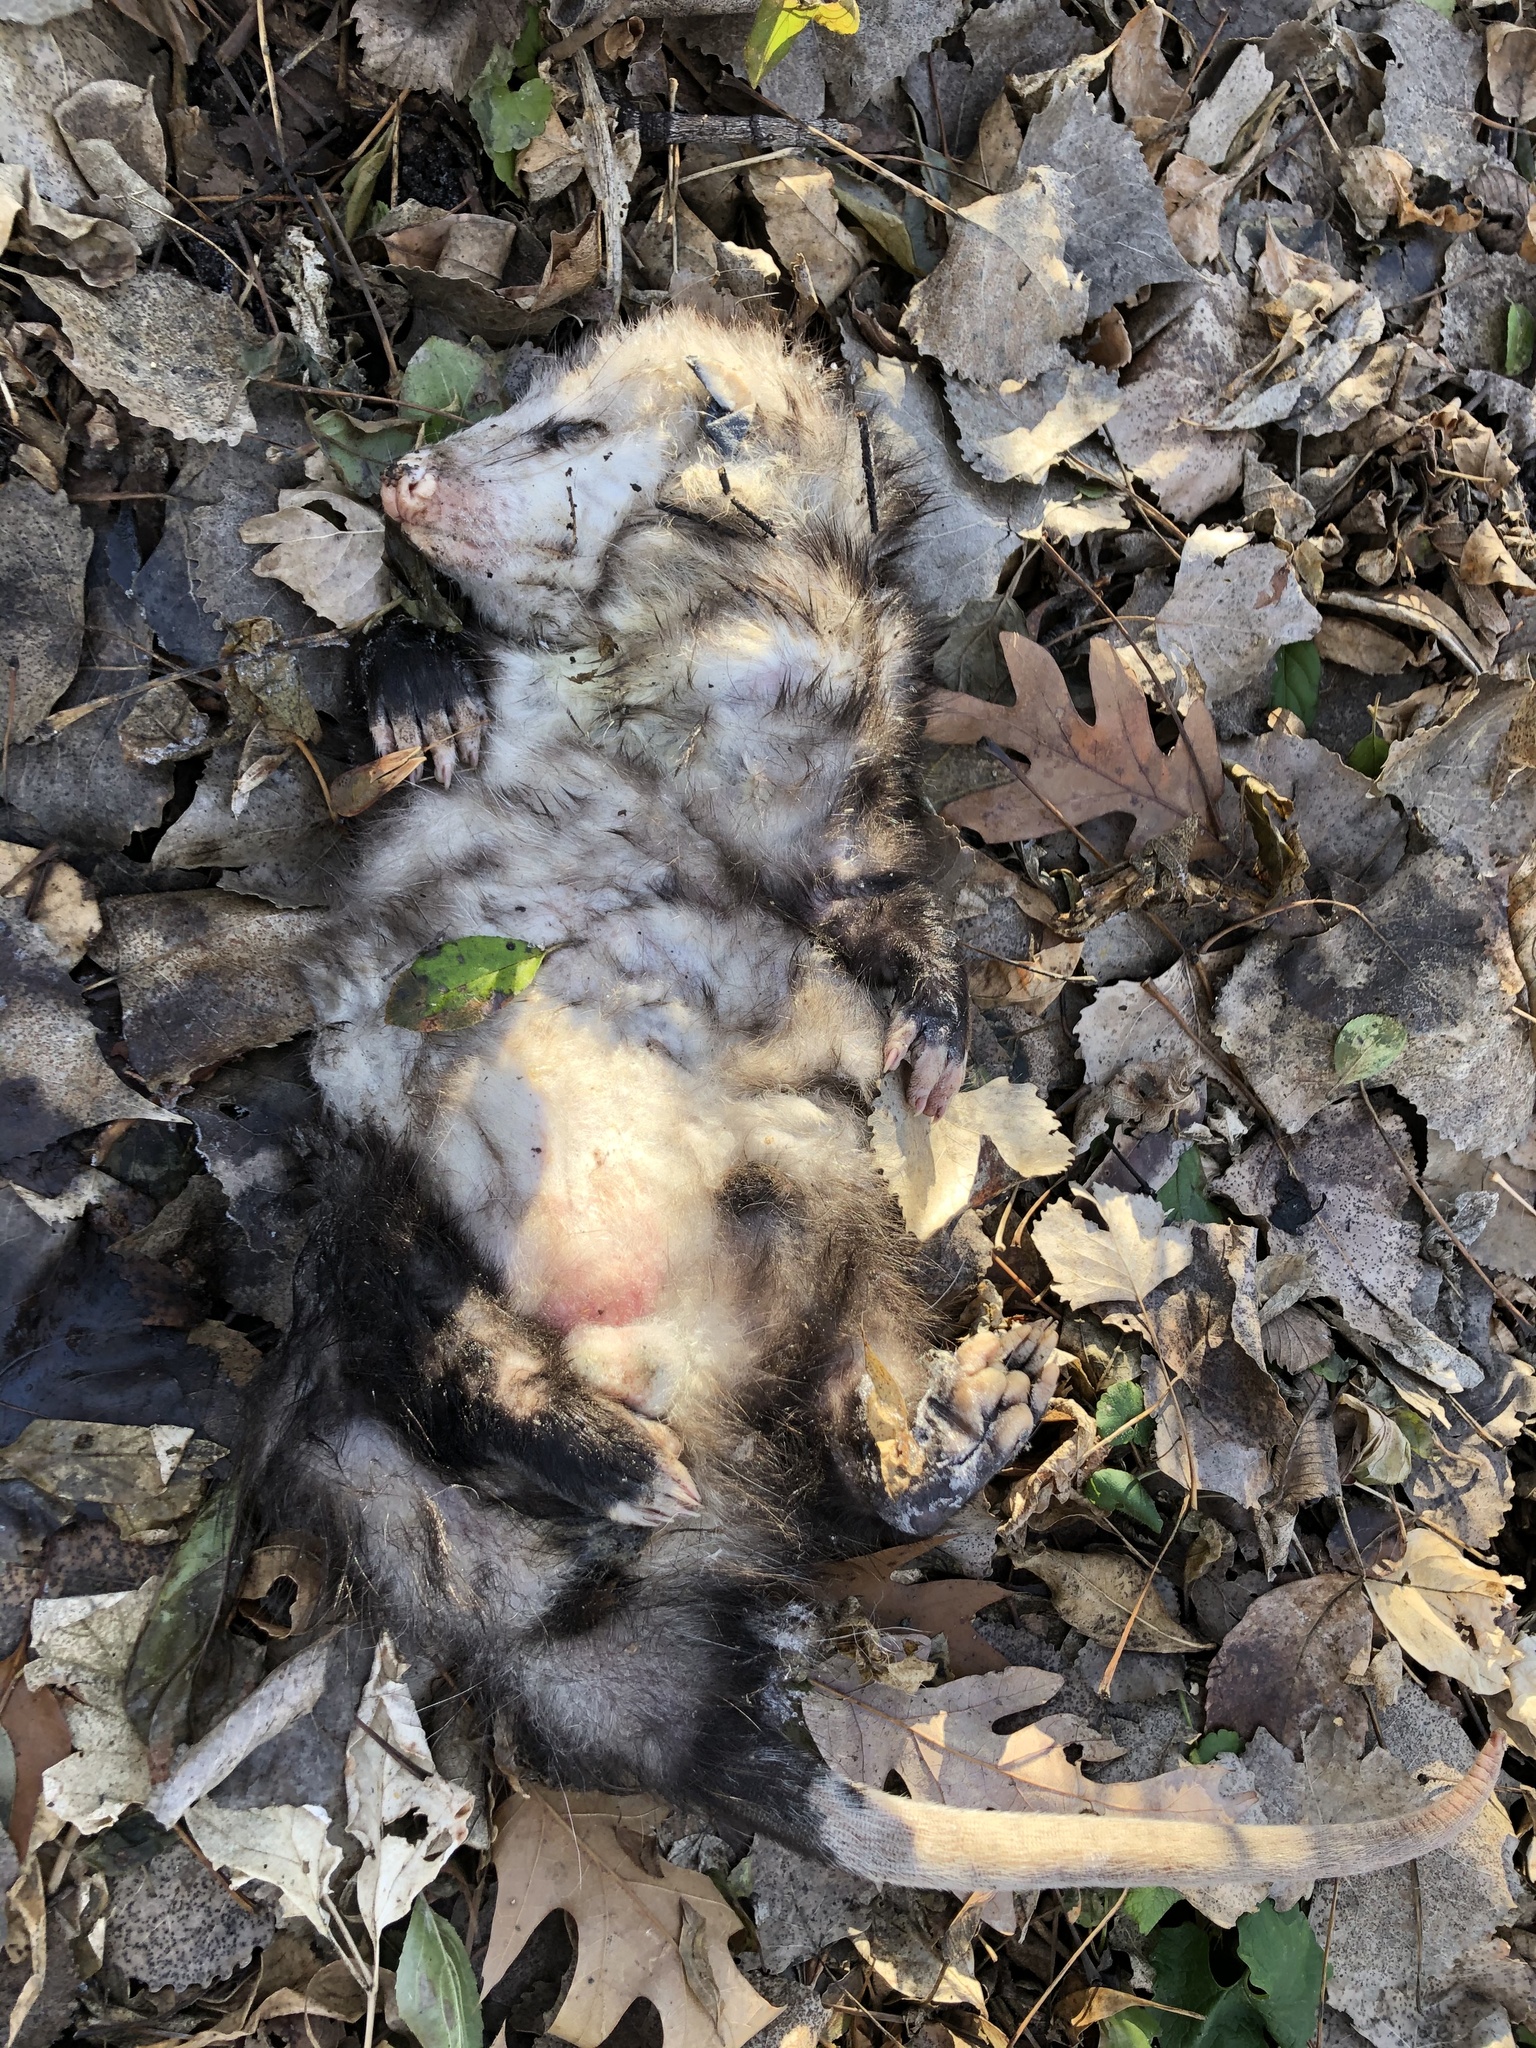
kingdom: Animalia
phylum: Chordata
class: Mammalia
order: Didelphimorphia
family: Didelphidae
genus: Didelphis
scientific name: Didelphis virginiana
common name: Virginia opossum
